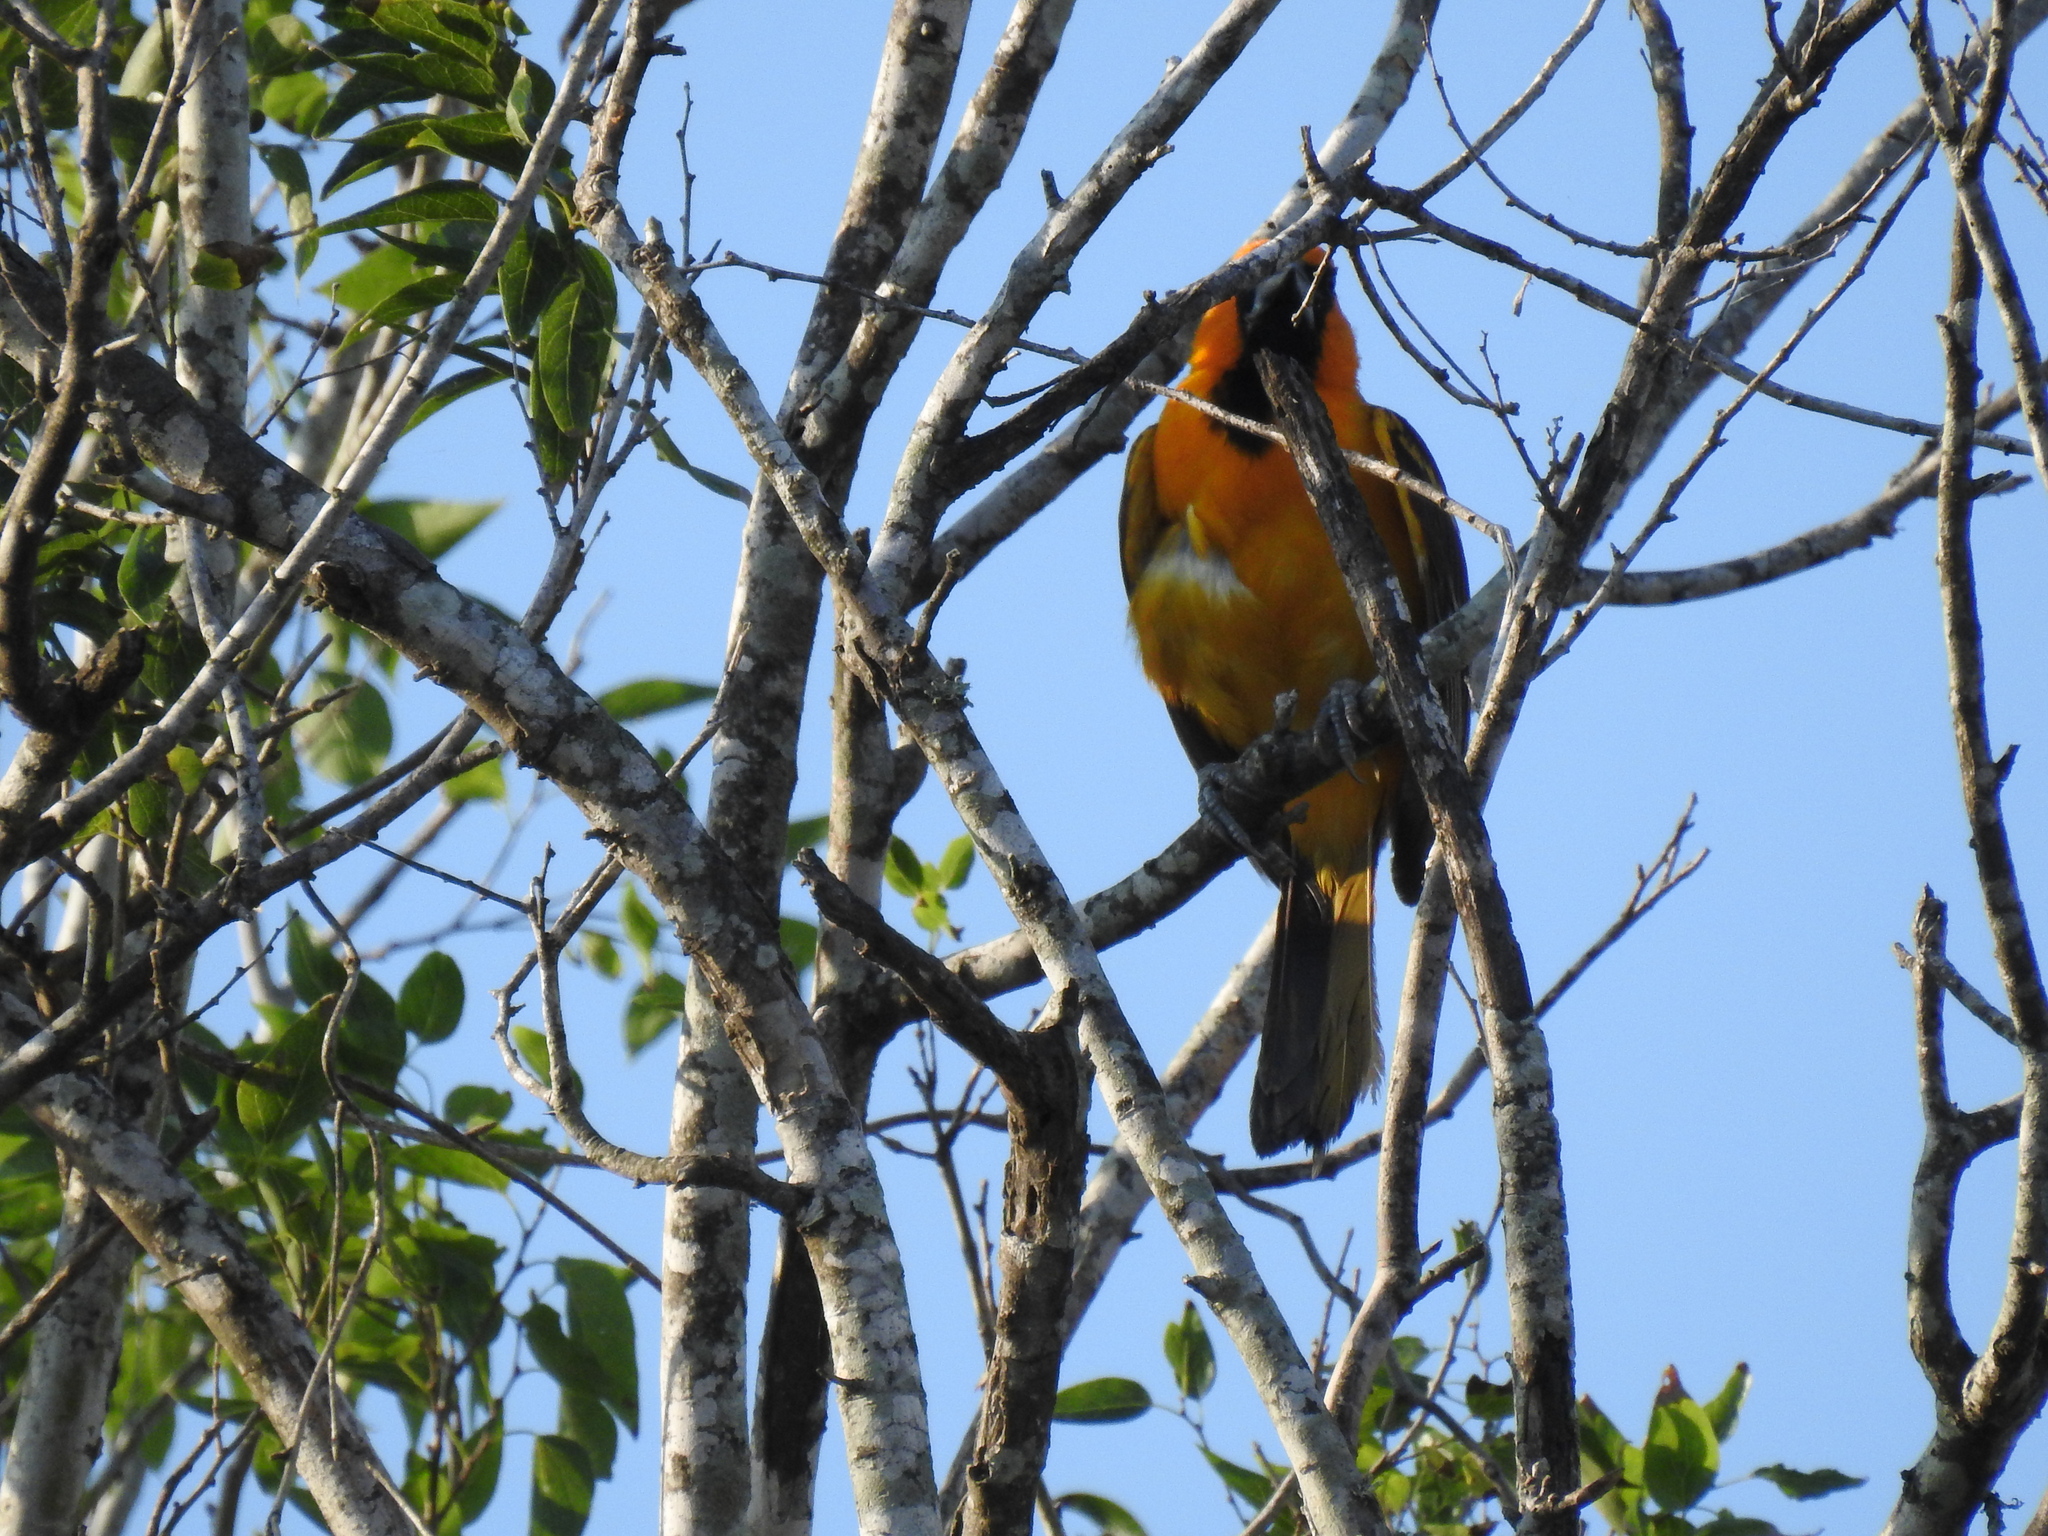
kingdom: Animalia
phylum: Chordata
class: Aves
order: Passeriformes
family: Icteridae
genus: Icterus
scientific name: Icterus gularis
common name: Altamira oriole
